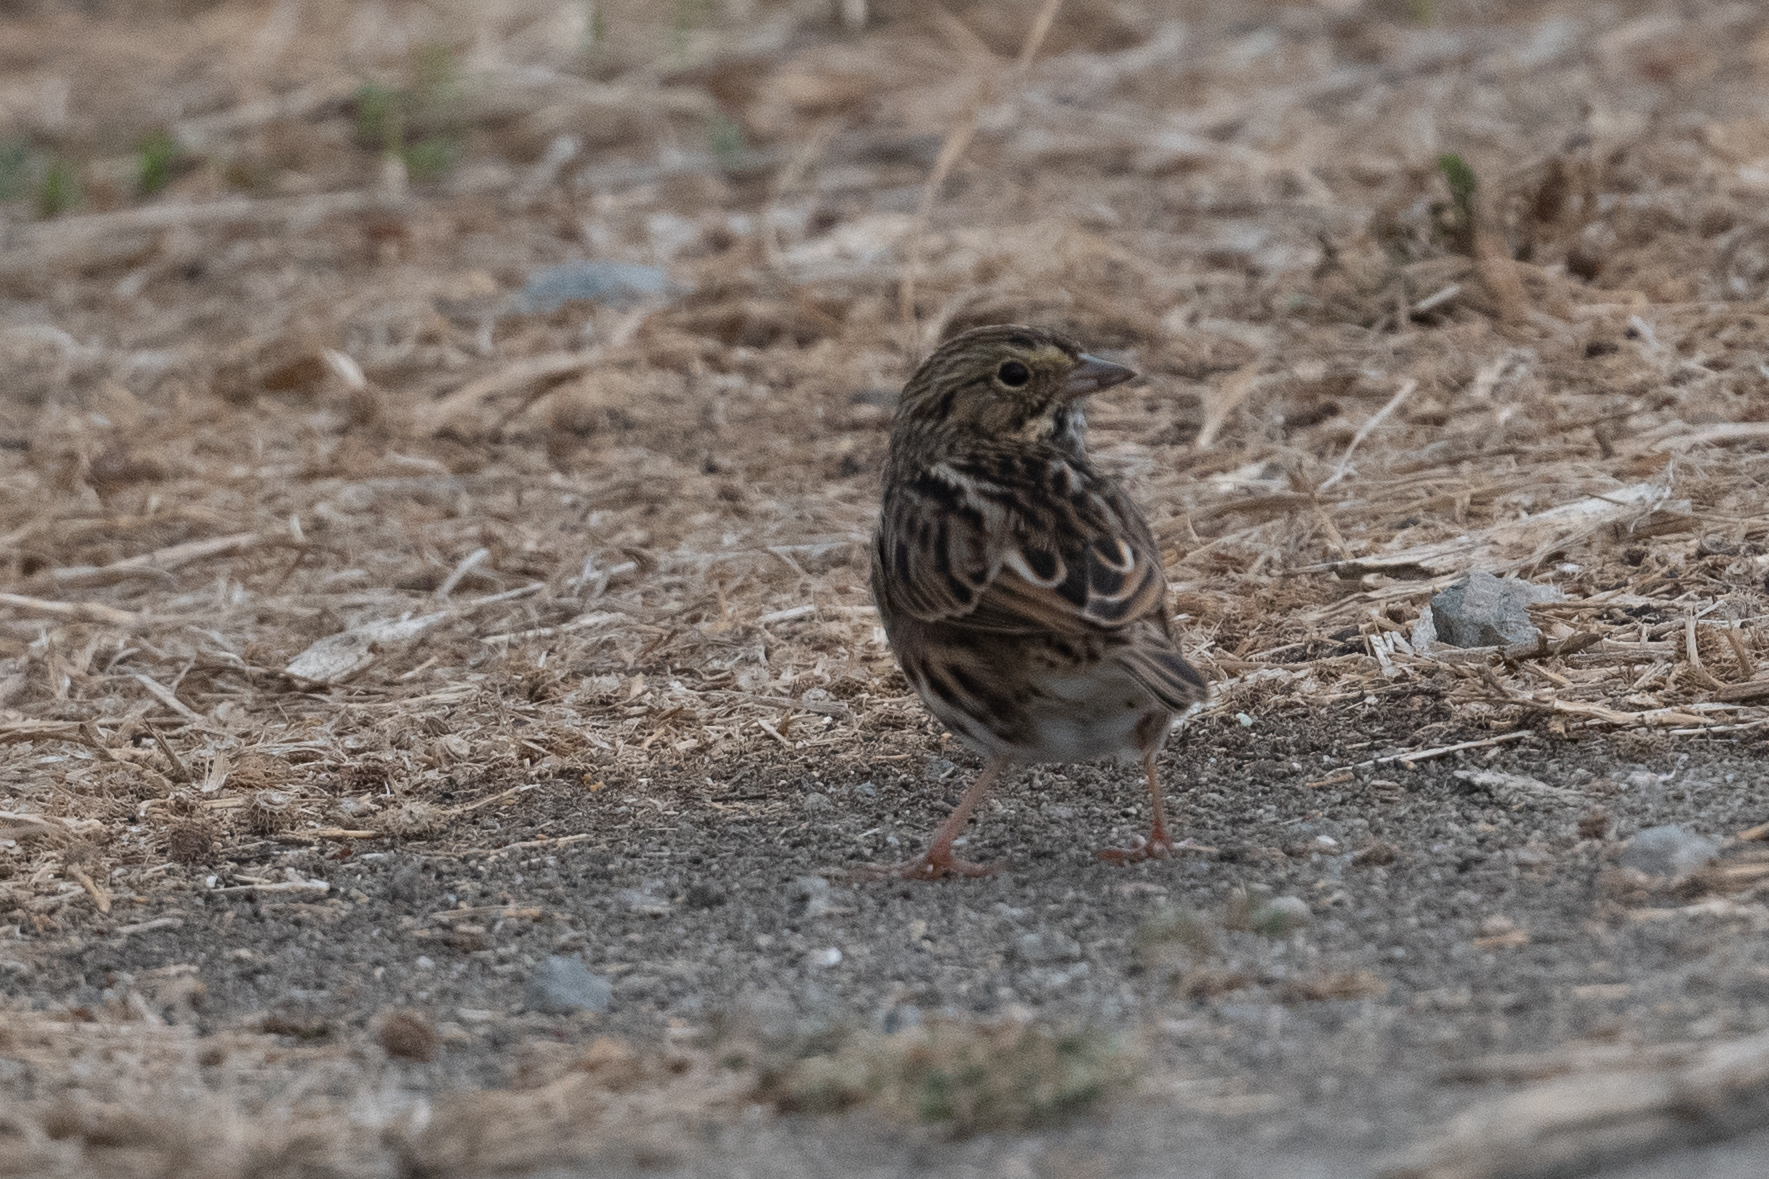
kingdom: Animalia
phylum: Chordata
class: Aves
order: Passeriformes
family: Passerellidae
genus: Passerculus
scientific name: Passerculus sandwichensis
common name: Savannah sparrow
